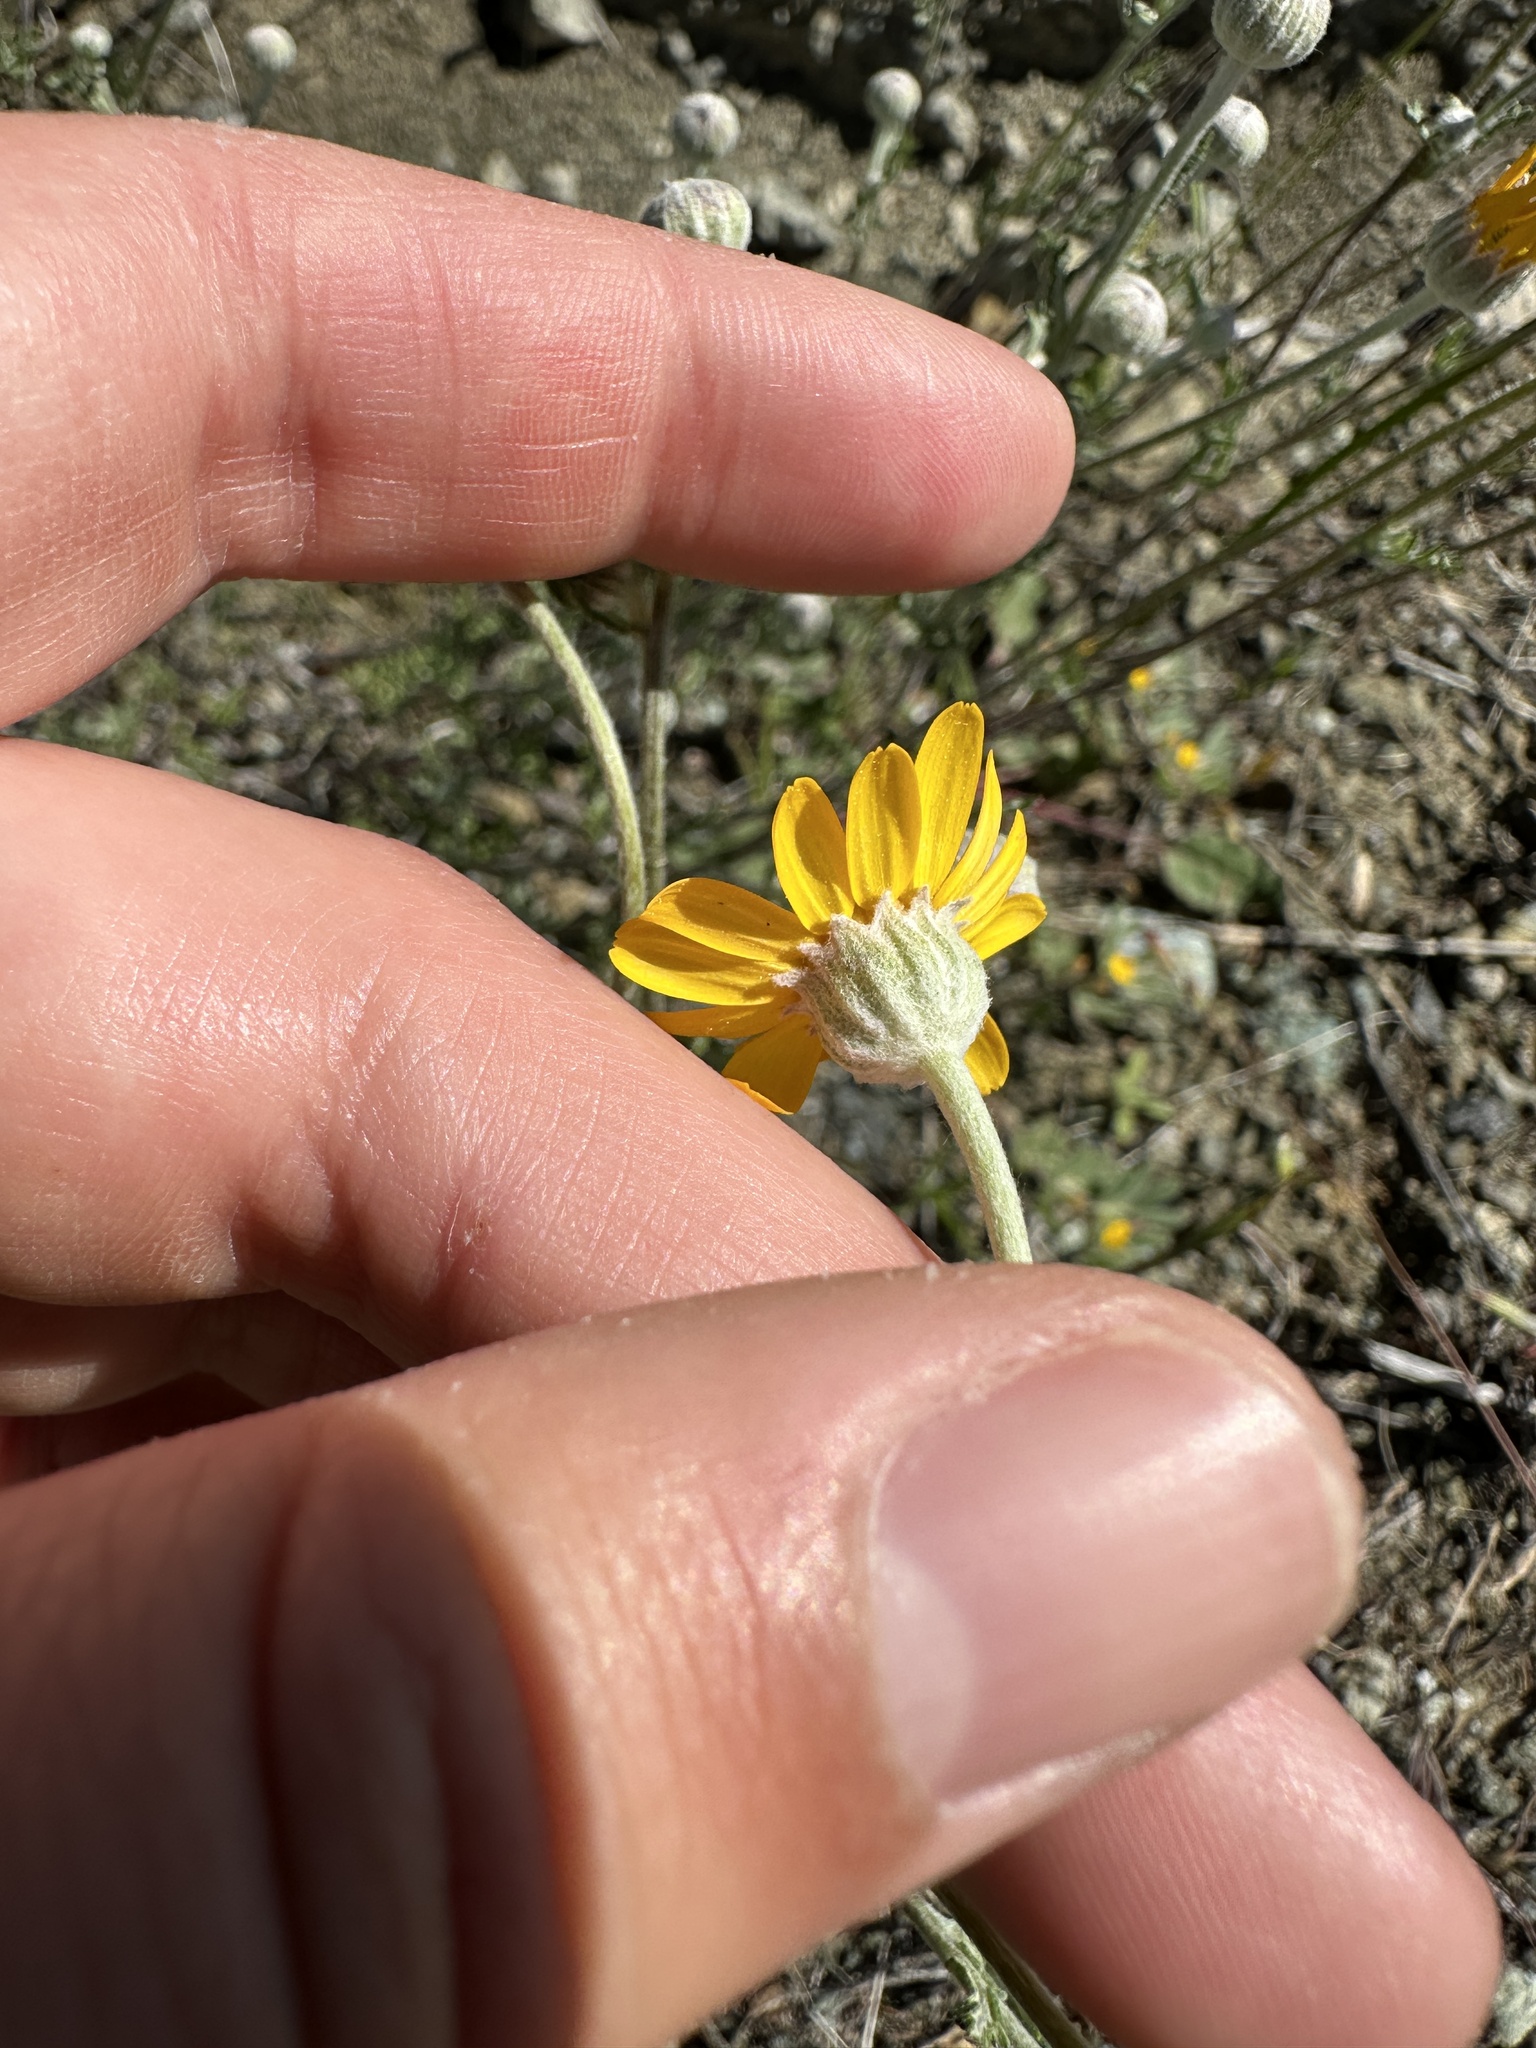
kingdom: Plantae
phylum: Tracheophyta
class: Magnoliopsida
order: Asterales
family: Asteraceae
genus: Eriophyllum
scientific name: Eriophyllum lanatum
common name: Common woolly-sunflower
